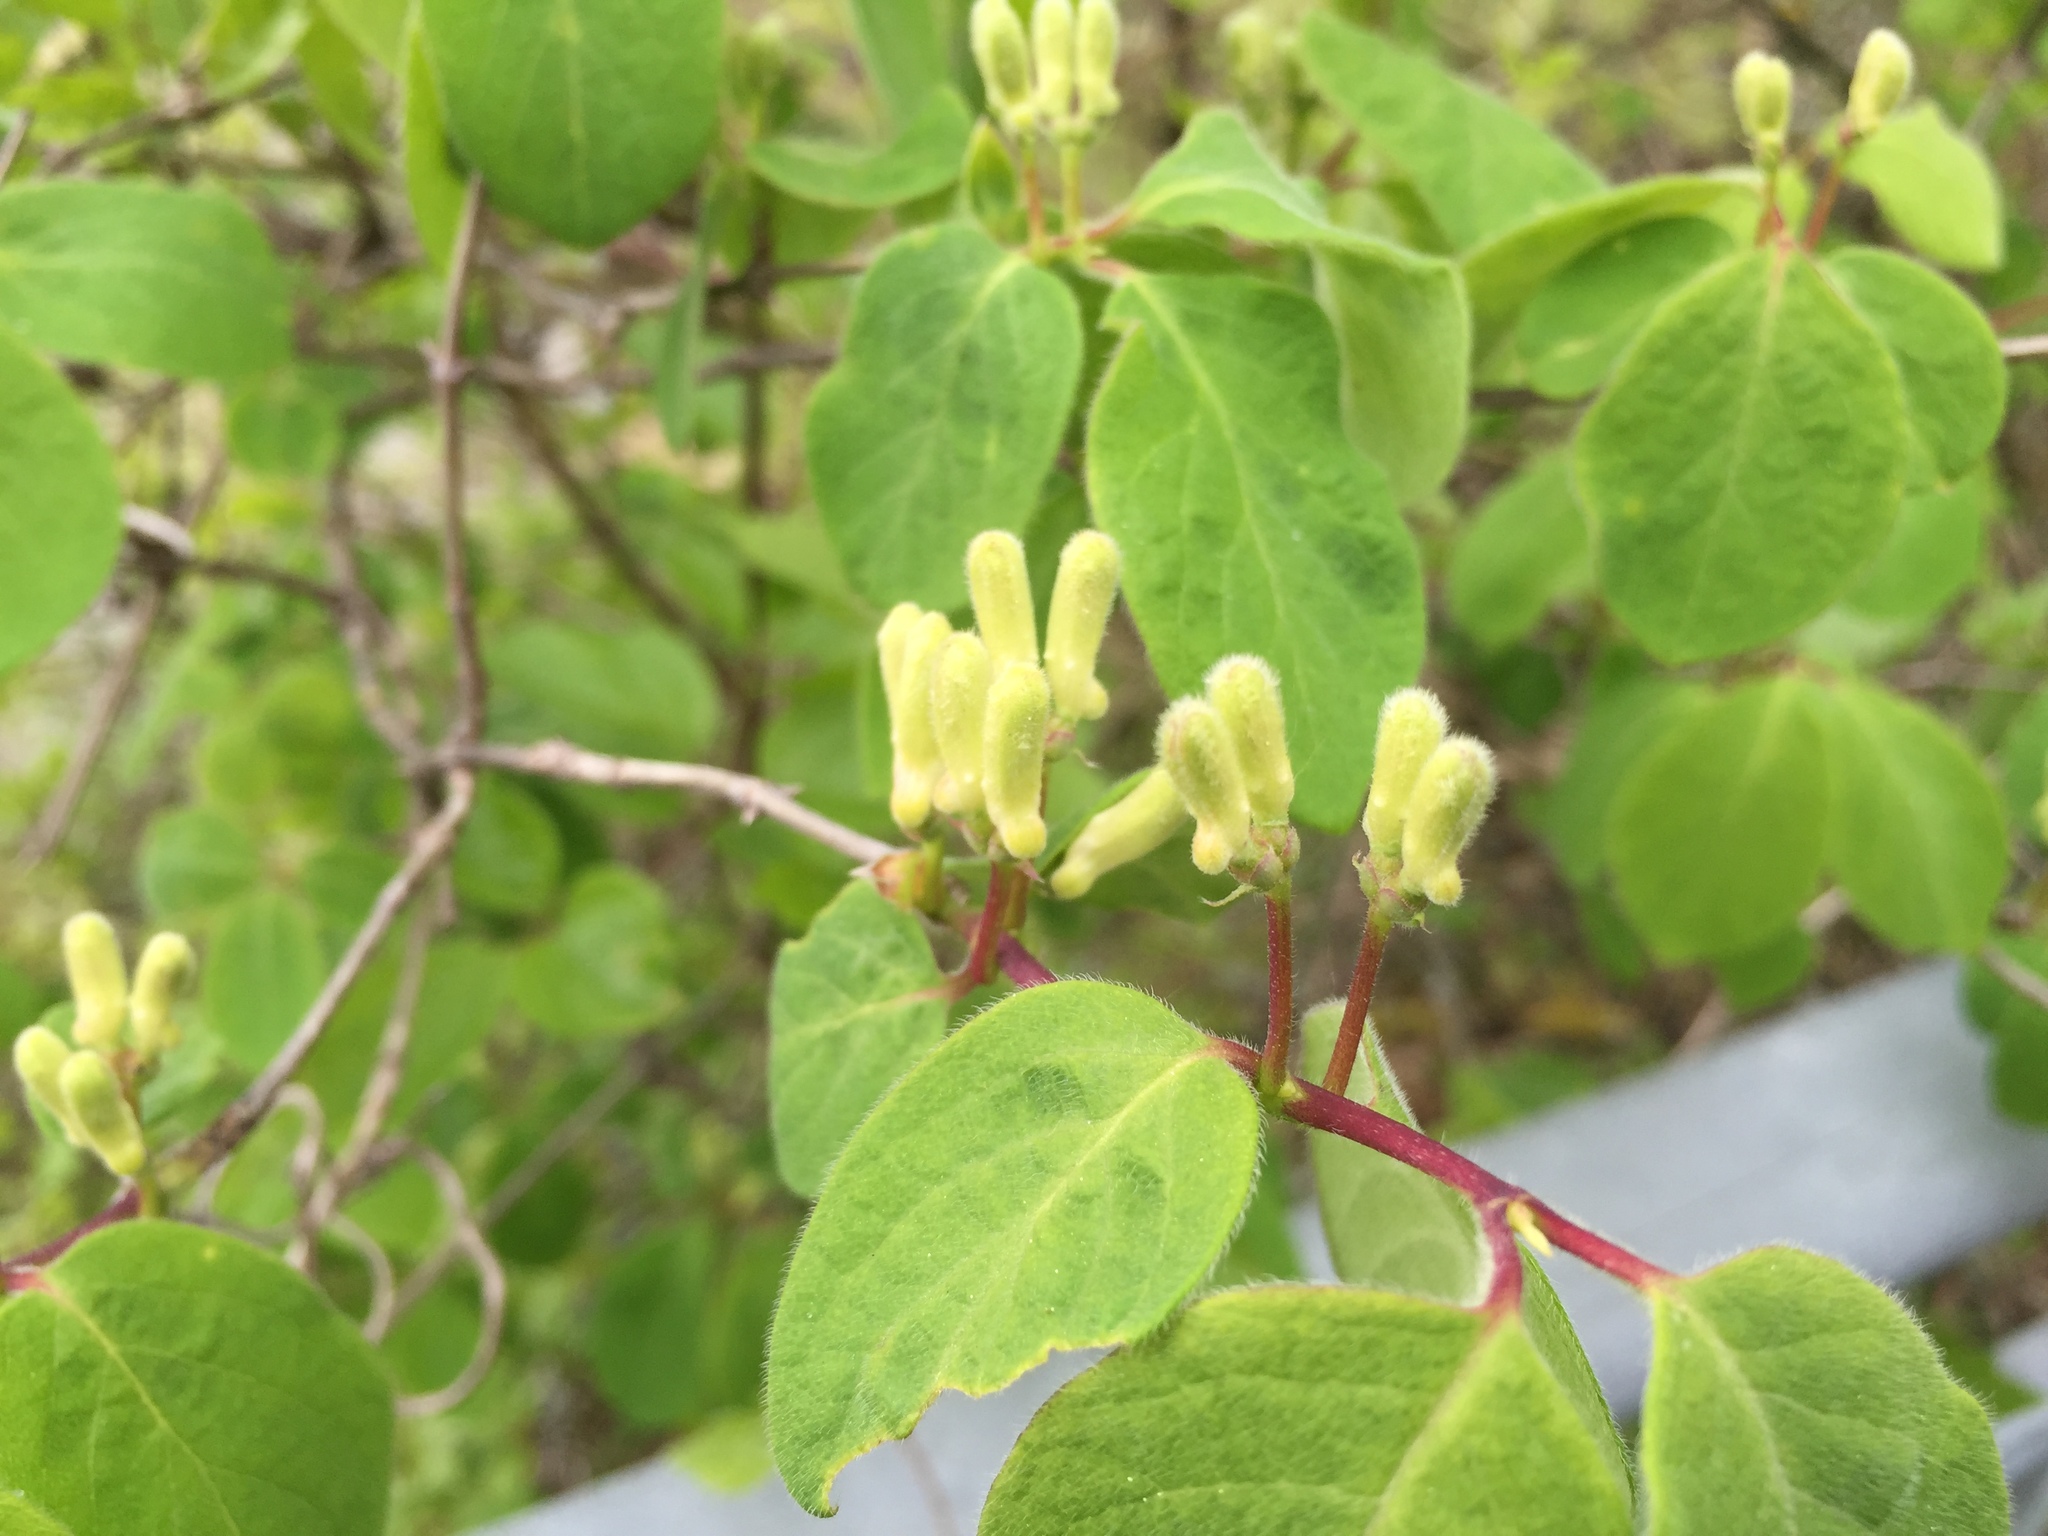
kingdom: Plantae
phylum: Tracheophyta
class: Magnoliopsida
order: Dipsacales
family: Caprifoliaceae
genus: Lonicera
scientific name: Lonicera xylosteum
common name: Fly honeysuckle
